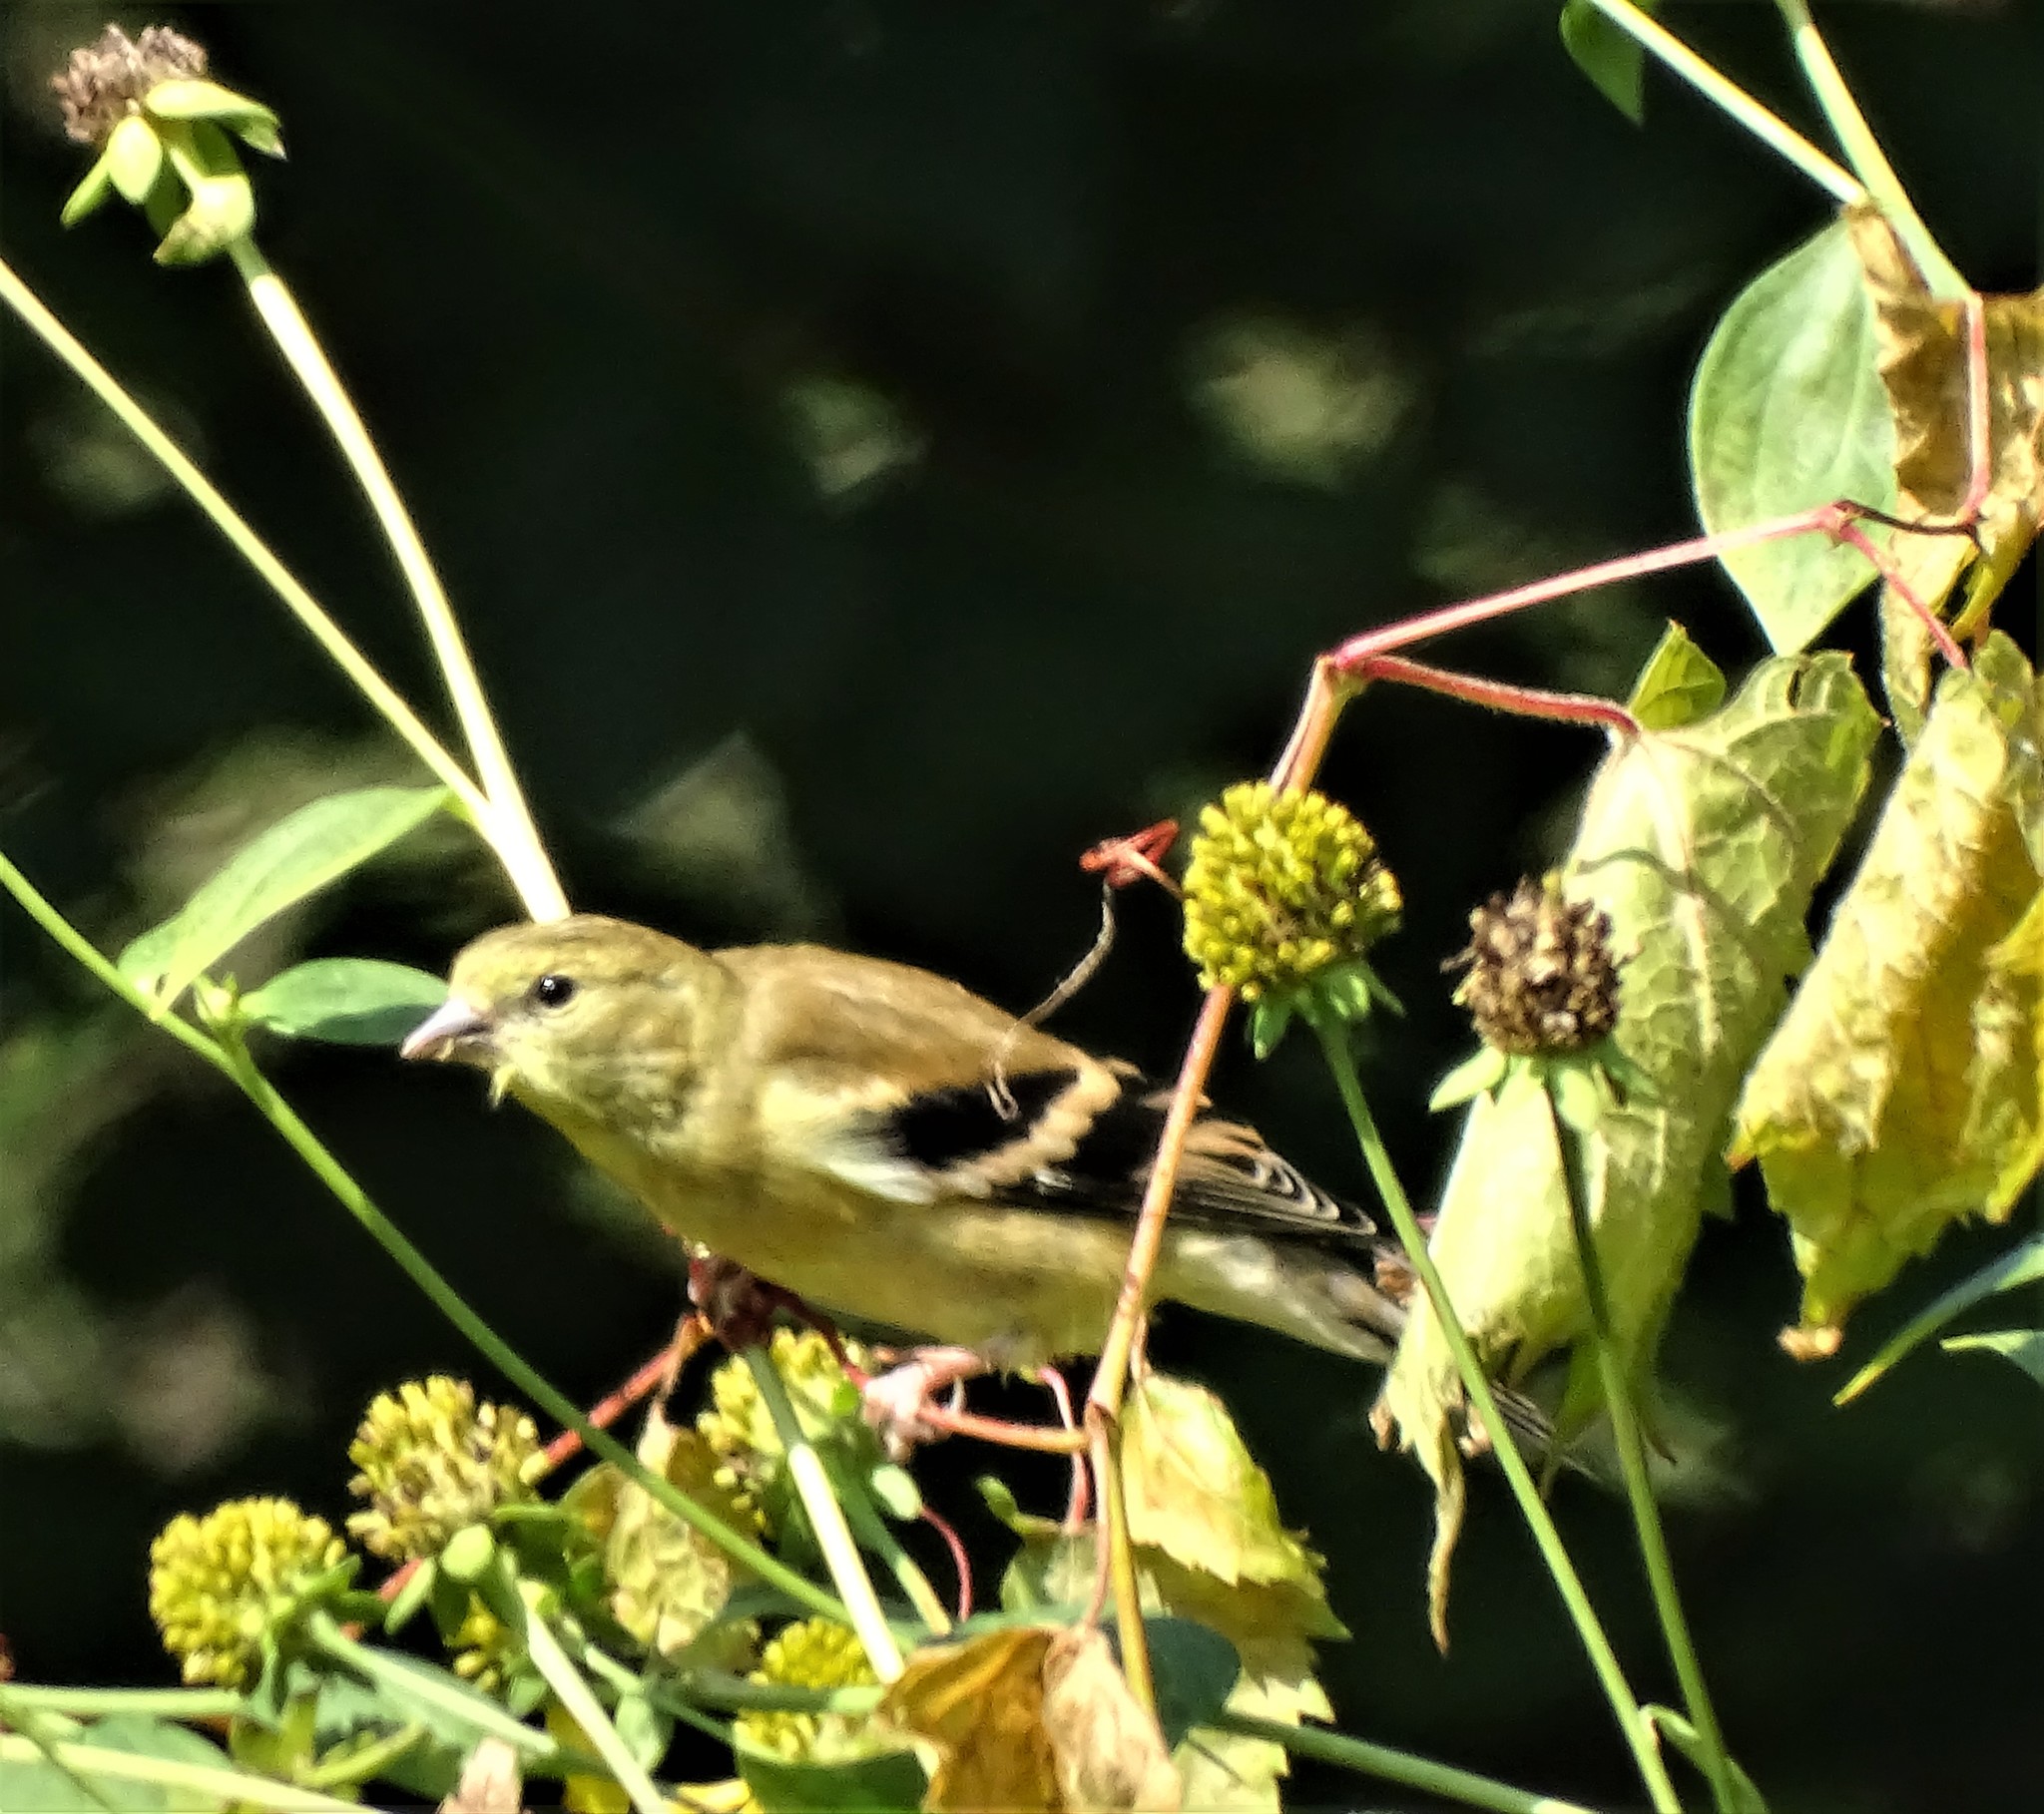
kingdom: Animalia
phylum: Chordata
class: Aves
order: Passeriformes
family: Fringillidae
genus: Spinus
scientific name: Spinus tristis
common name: American goldfinch
